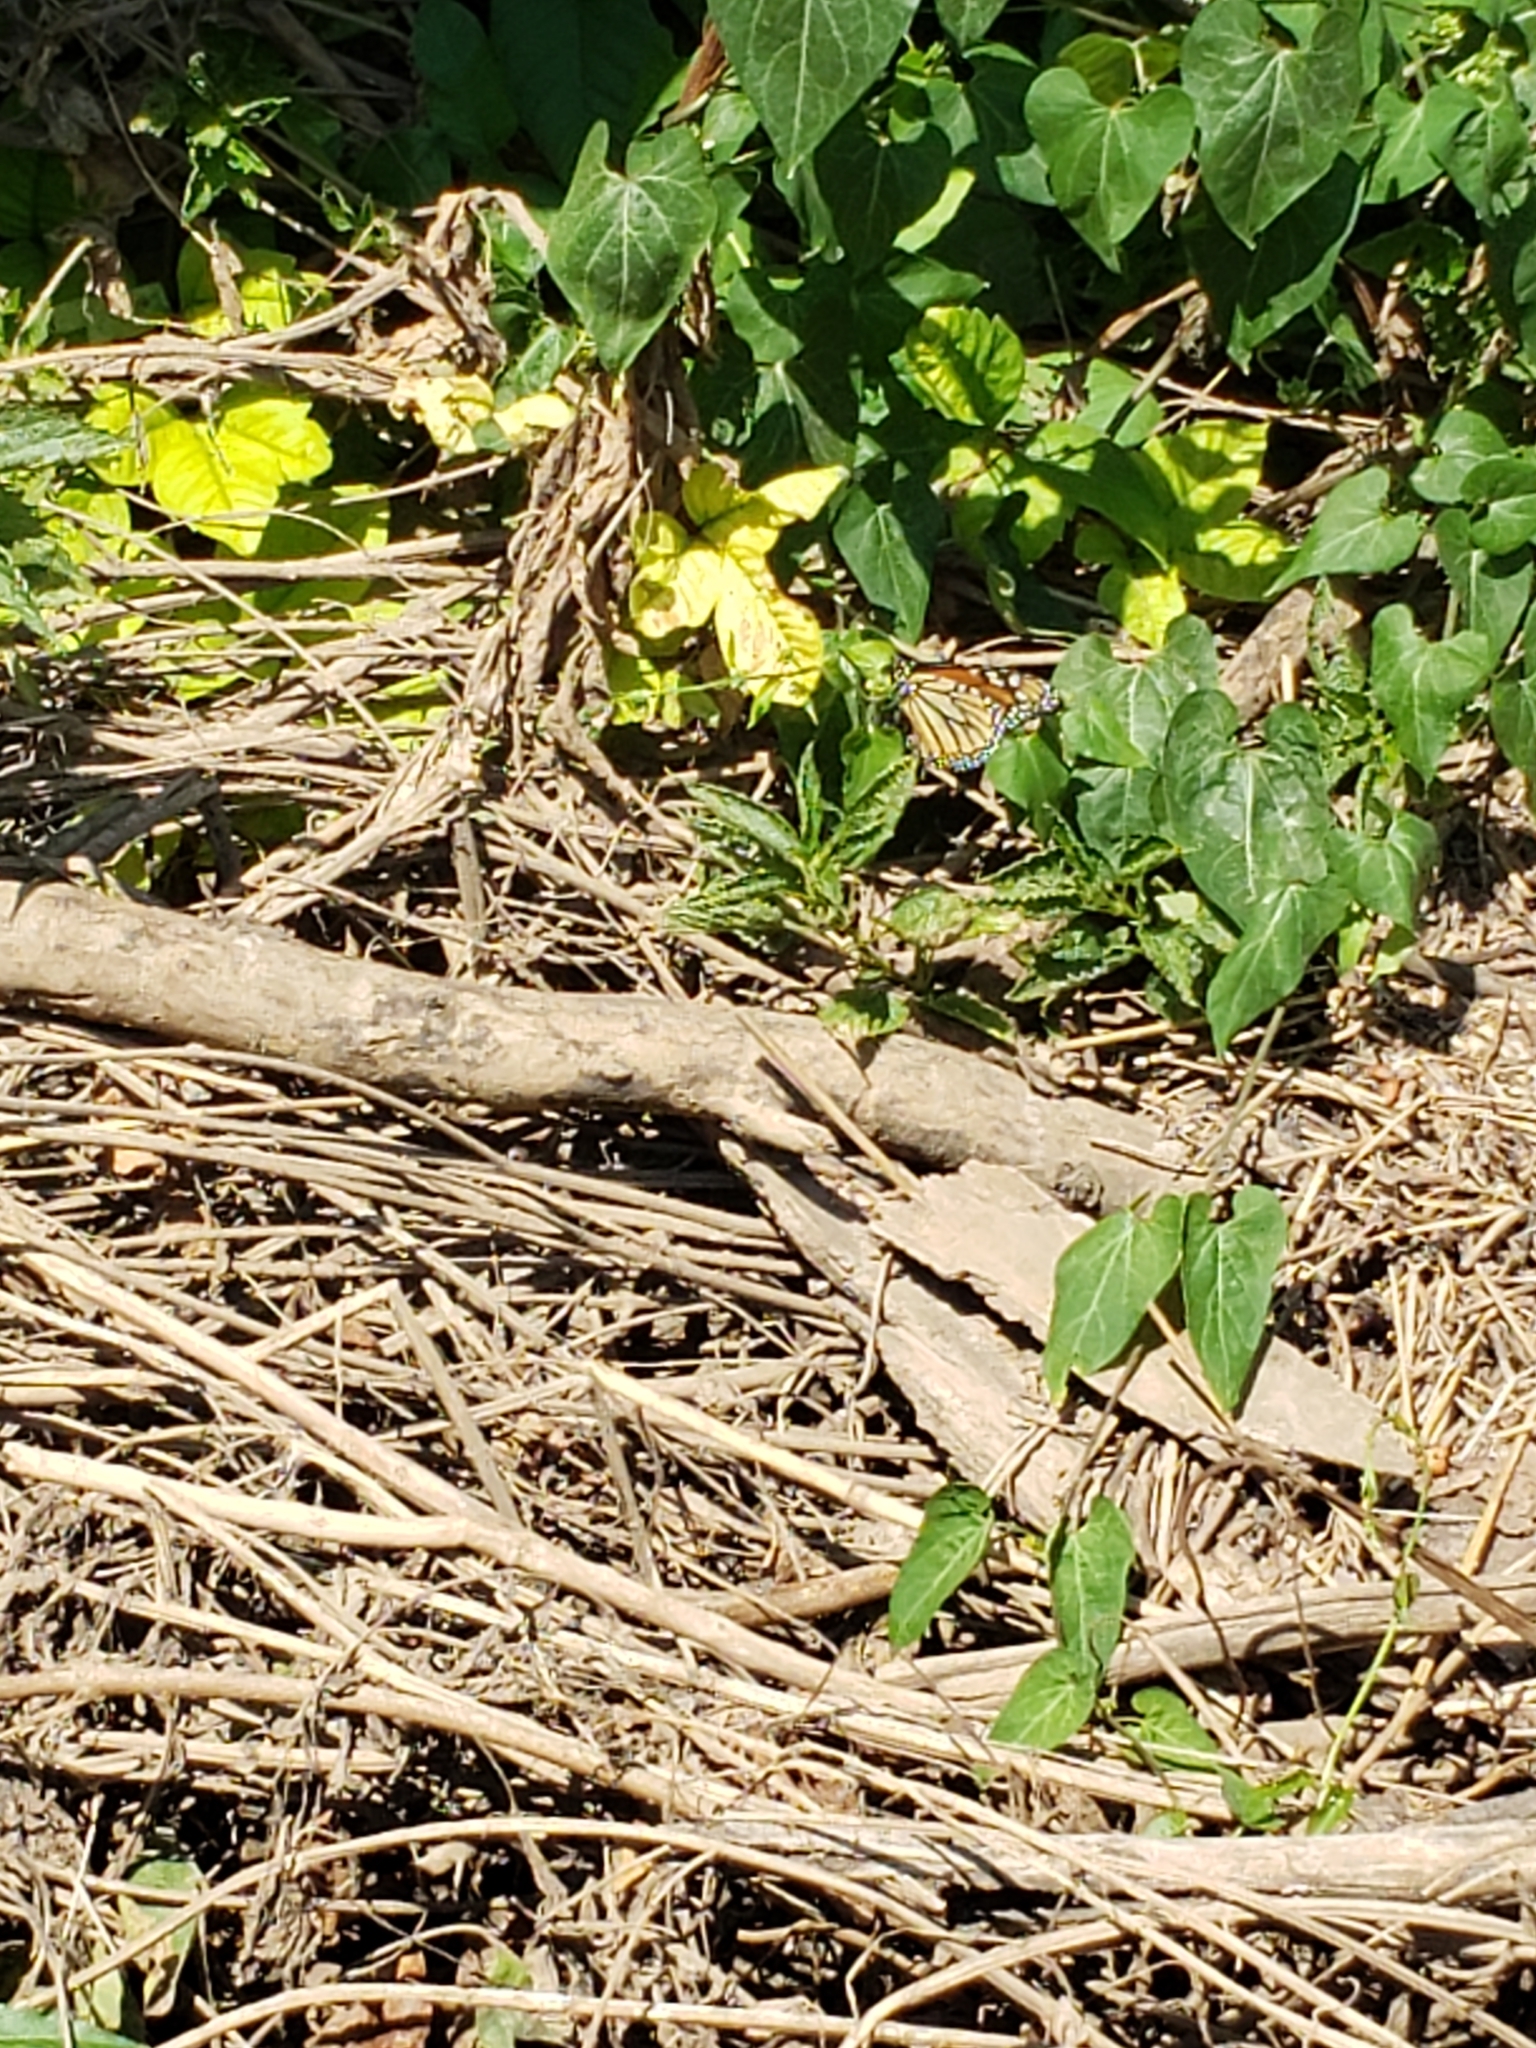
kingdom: Animalia
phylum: Arthropoda
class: Insecta
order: Lepidoptera
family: Nymphalidae
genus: Danaus
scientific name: Danaus plexippus
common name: Monarch
